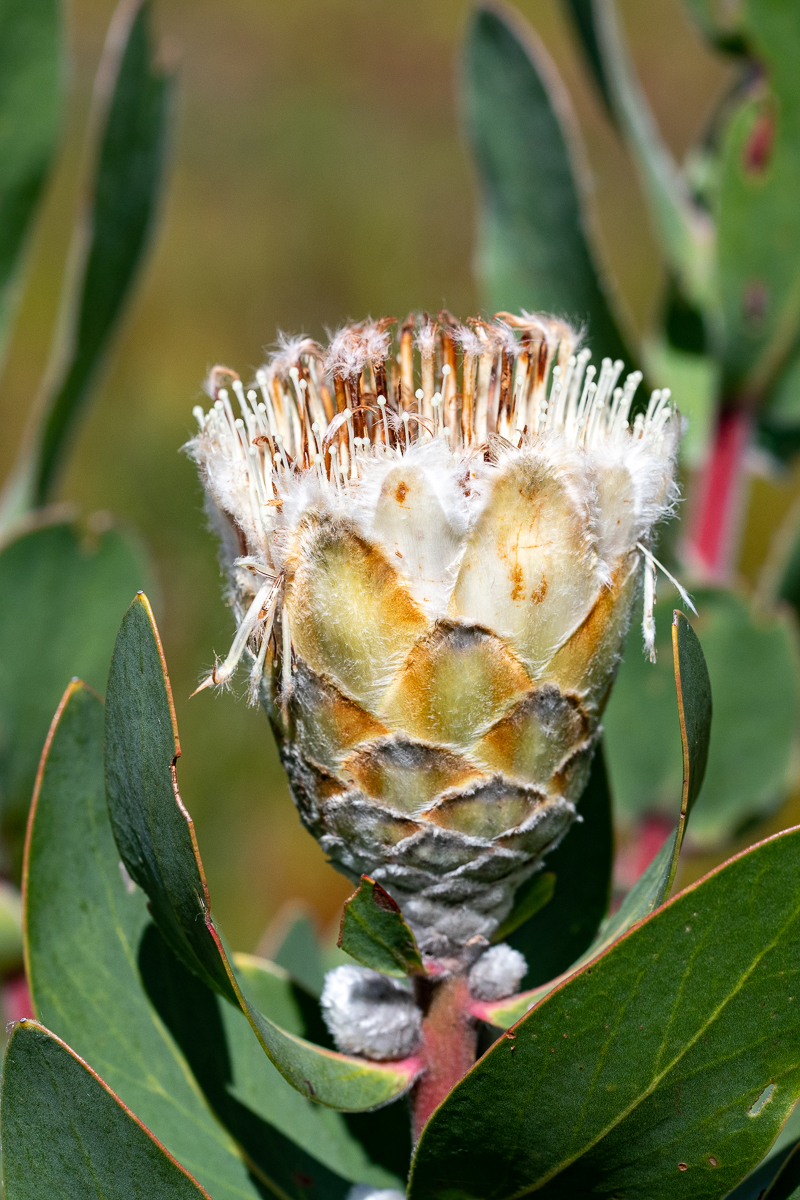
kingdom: Plantae
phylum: Tracheophyta
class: Magnoliopsida
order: Proteales
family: Proteaceae
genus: Protea
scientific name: Protea mundii
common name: Forest sugarbush
